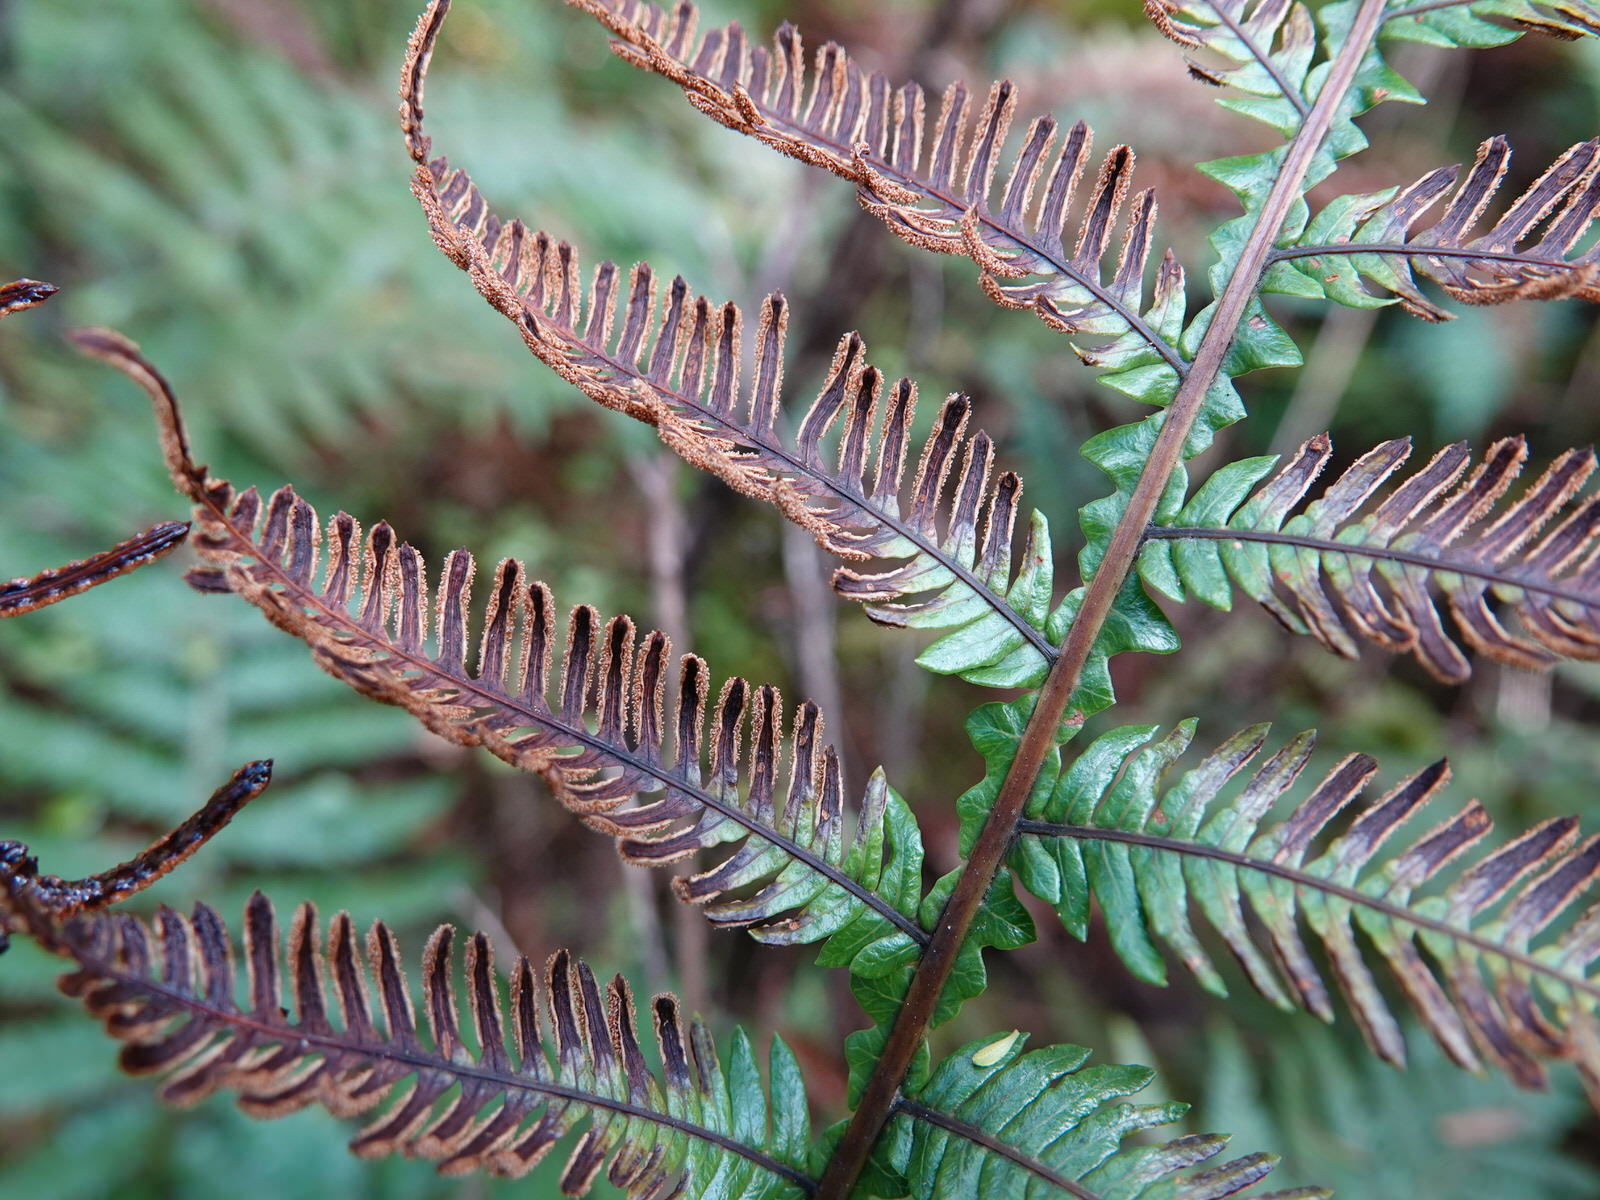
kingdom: Plantae
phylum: Tracheophyta
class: Polypodiopsida
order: Polypodiales
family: Blechnaceae
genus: Diploblechnum
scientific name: Diploblechnum fraseri
